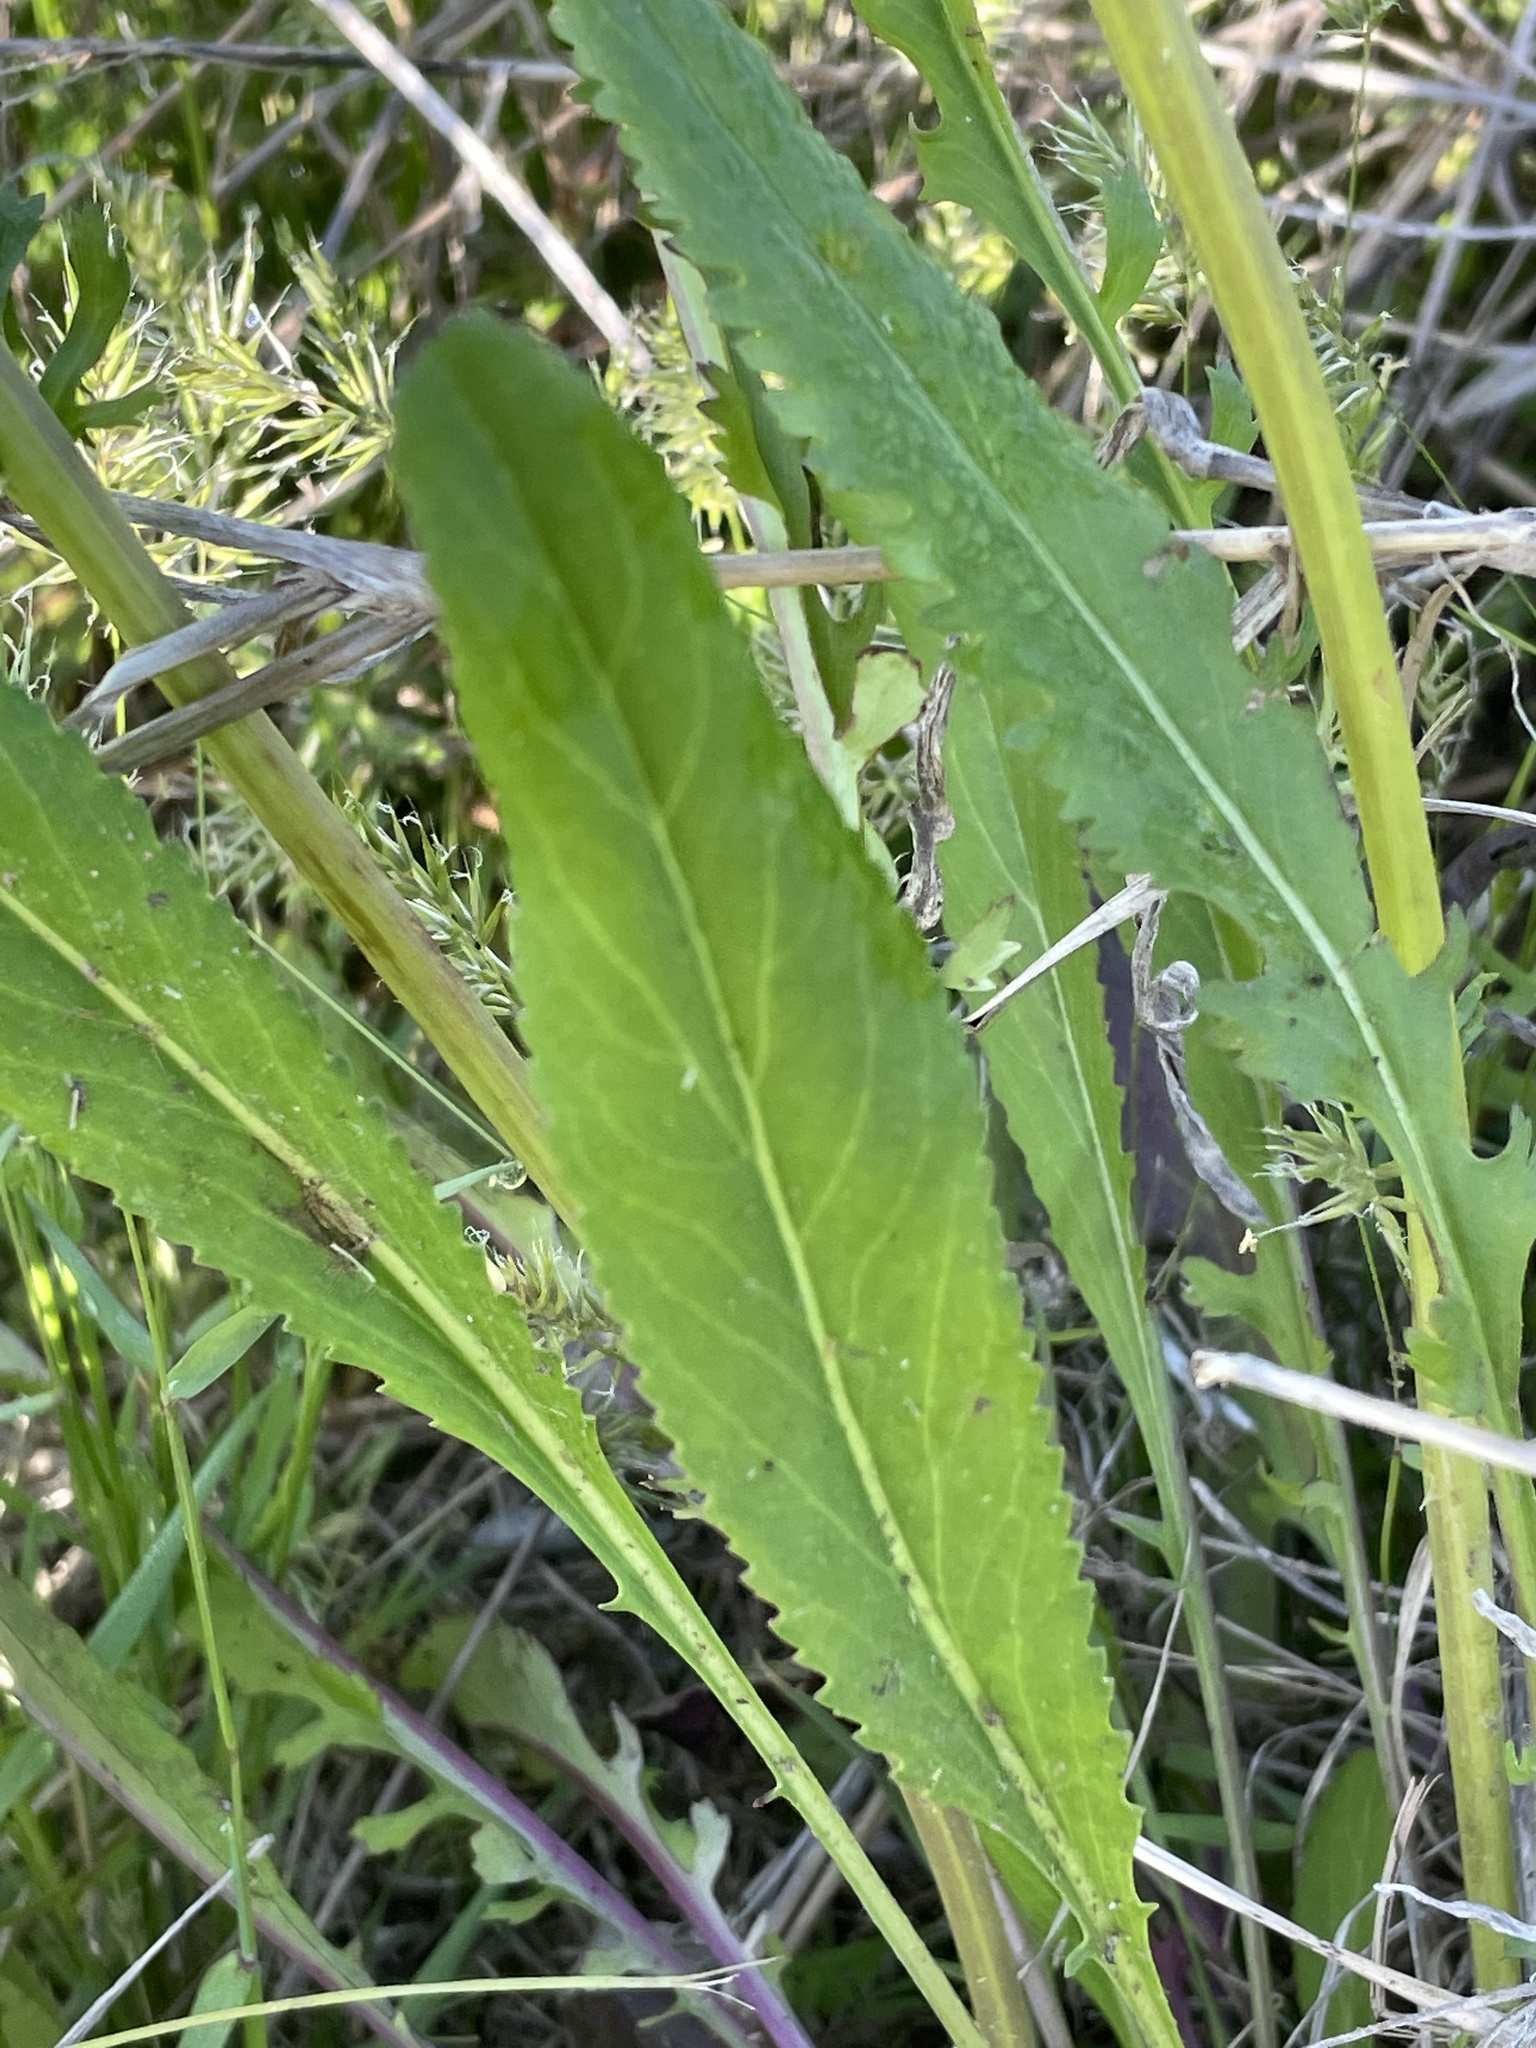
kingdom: Plantae
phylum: Tracheophyta
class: Magnoliopsida
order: Asterales
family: Asteraceae
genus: Packera
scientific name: Packera anonyma
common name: Small ragwort
